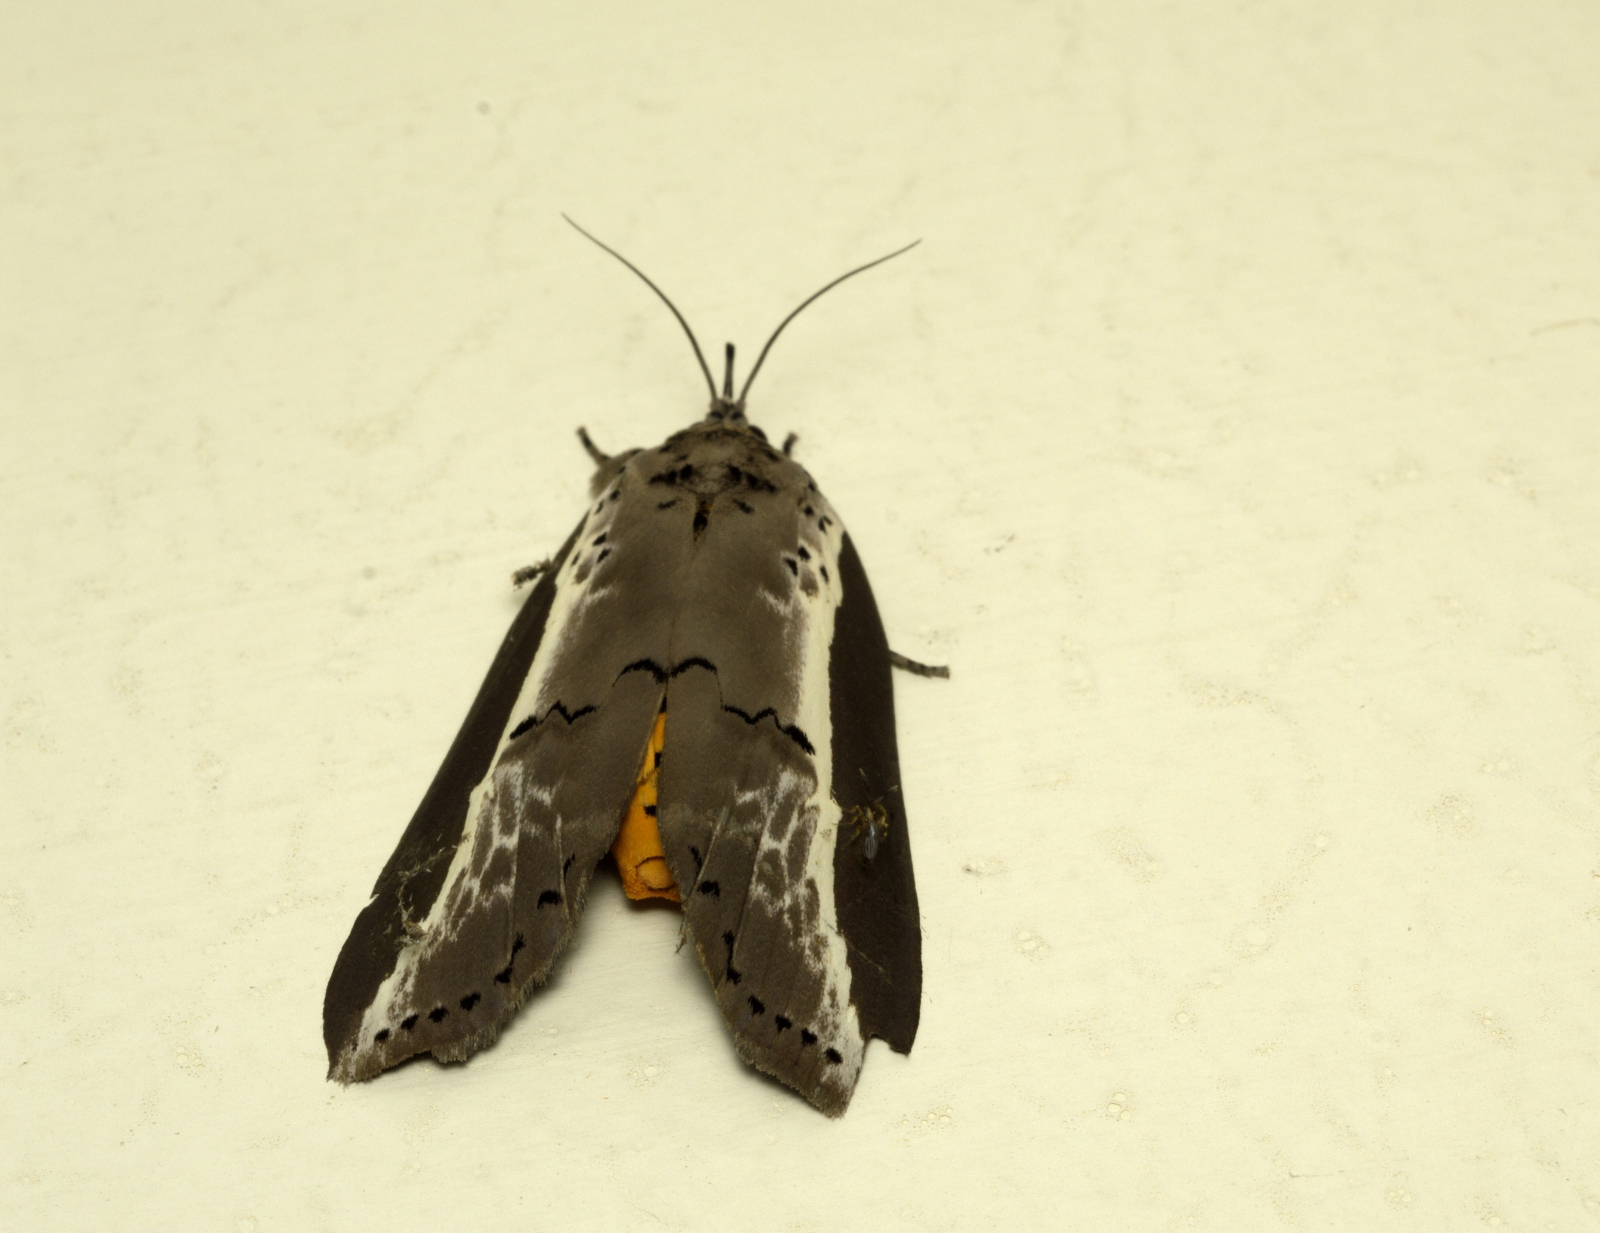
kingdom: Animalia
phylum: Arthropoda
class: Insecta
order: Lepidoptera
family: Nolidae
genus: Eligma
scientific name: Eligma narcissus
